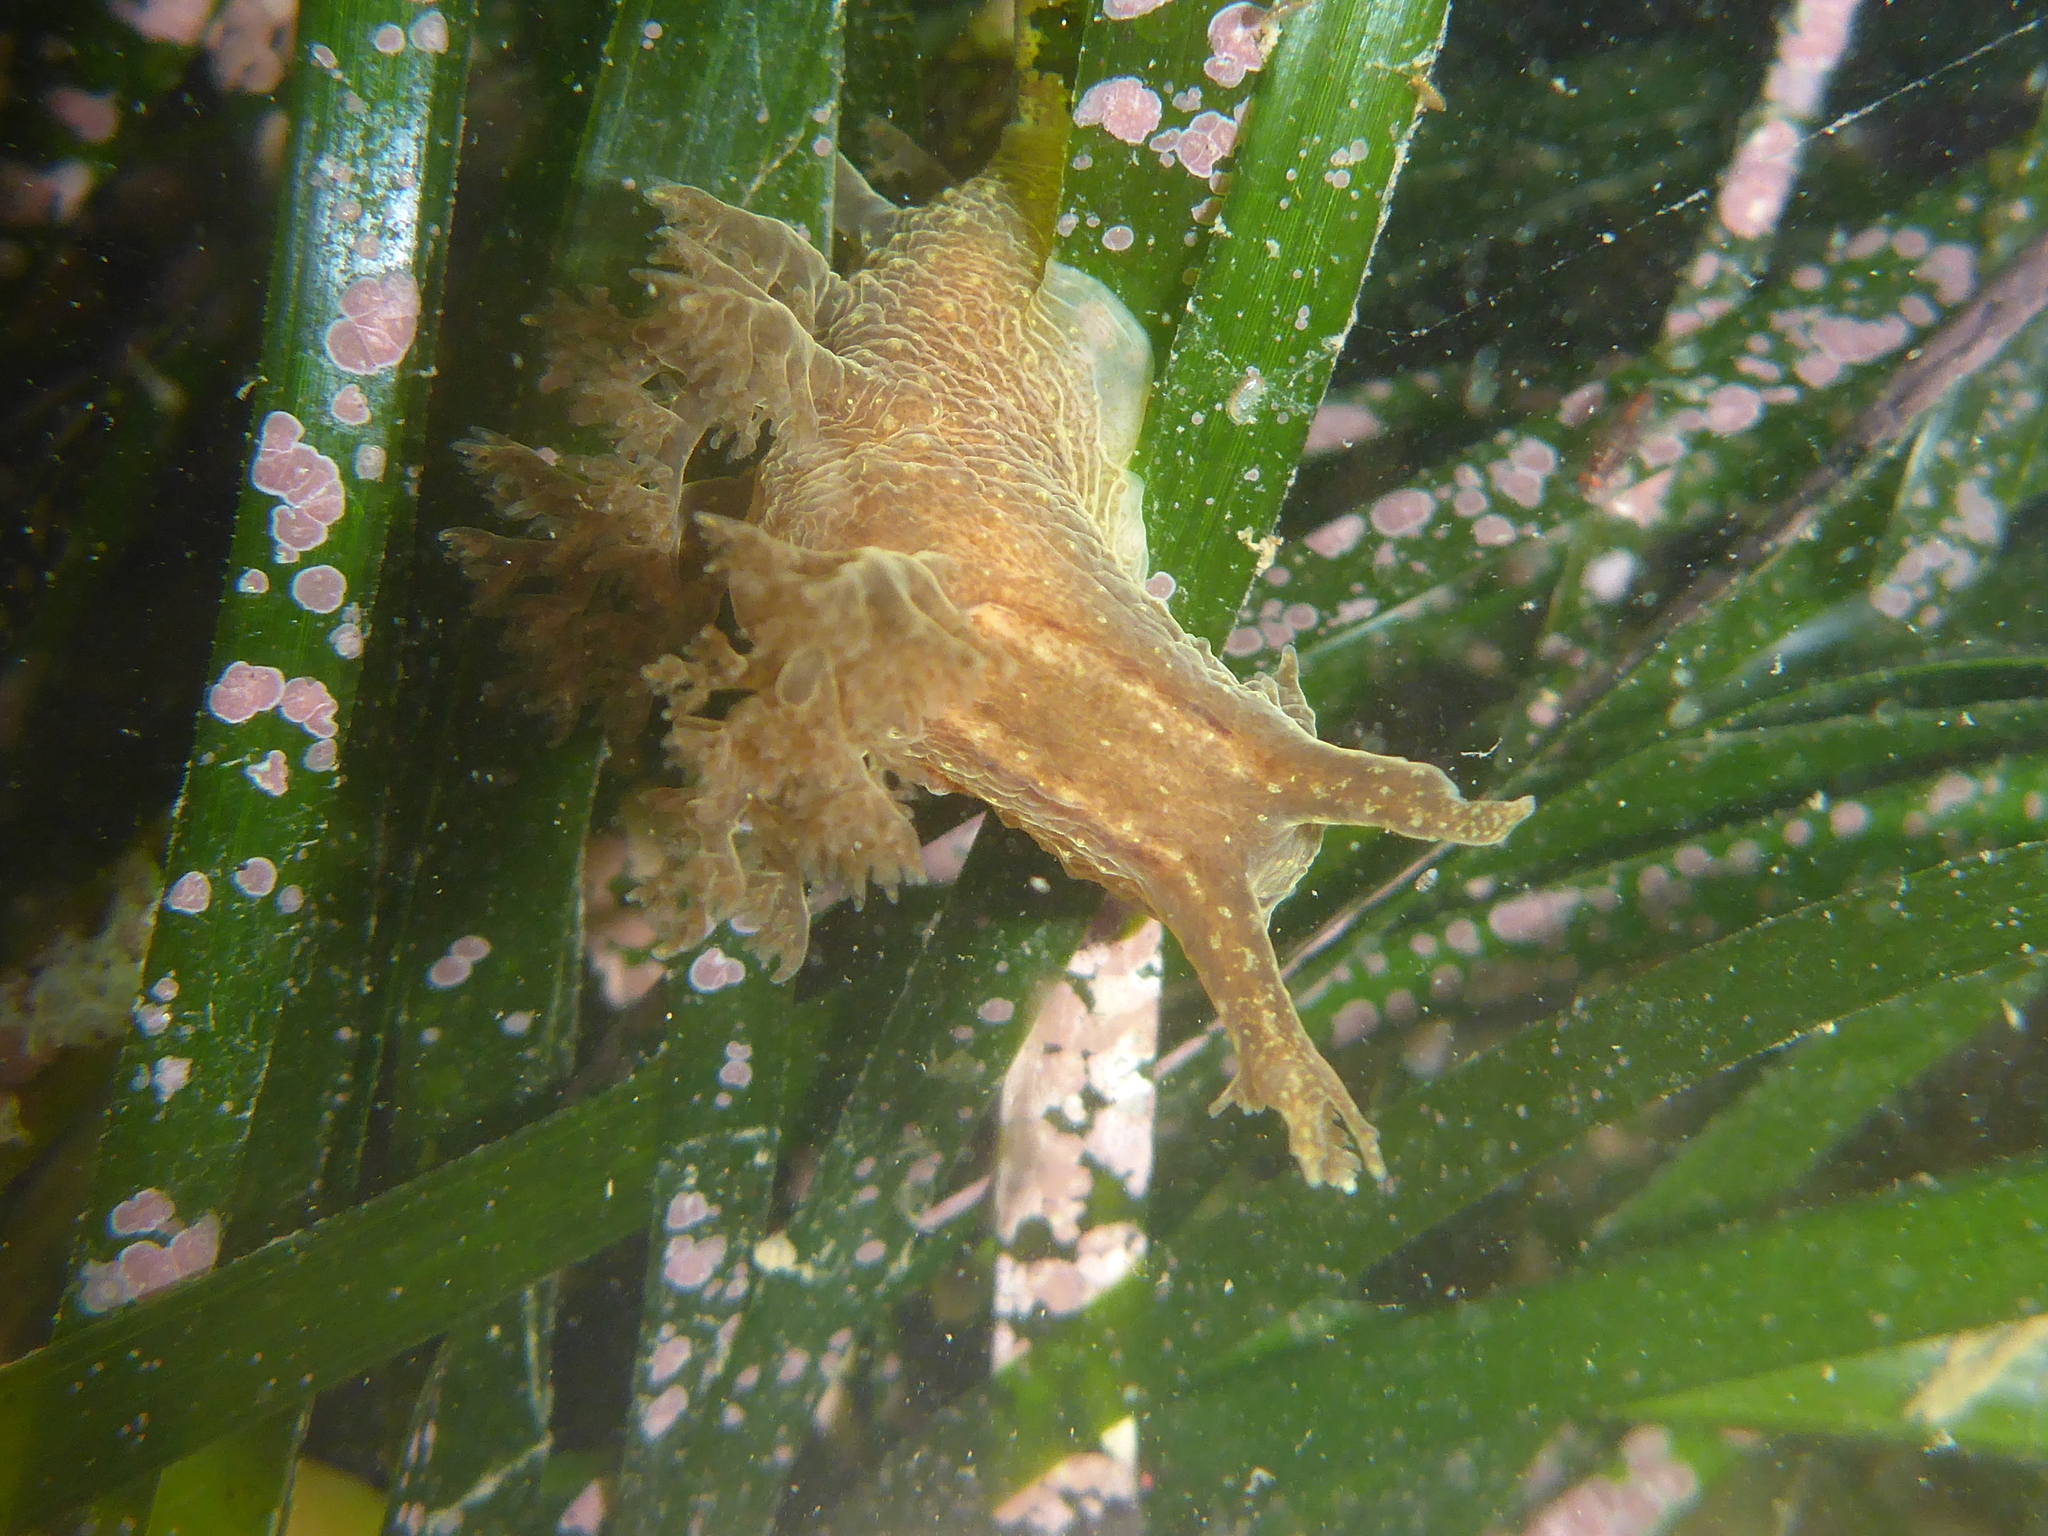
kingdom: Animalia
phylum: Mollusca
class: Gastropoda
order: Nudibranchia
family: Dendronotidae
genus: Dendronotus
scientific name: Dendronotus subramosus
